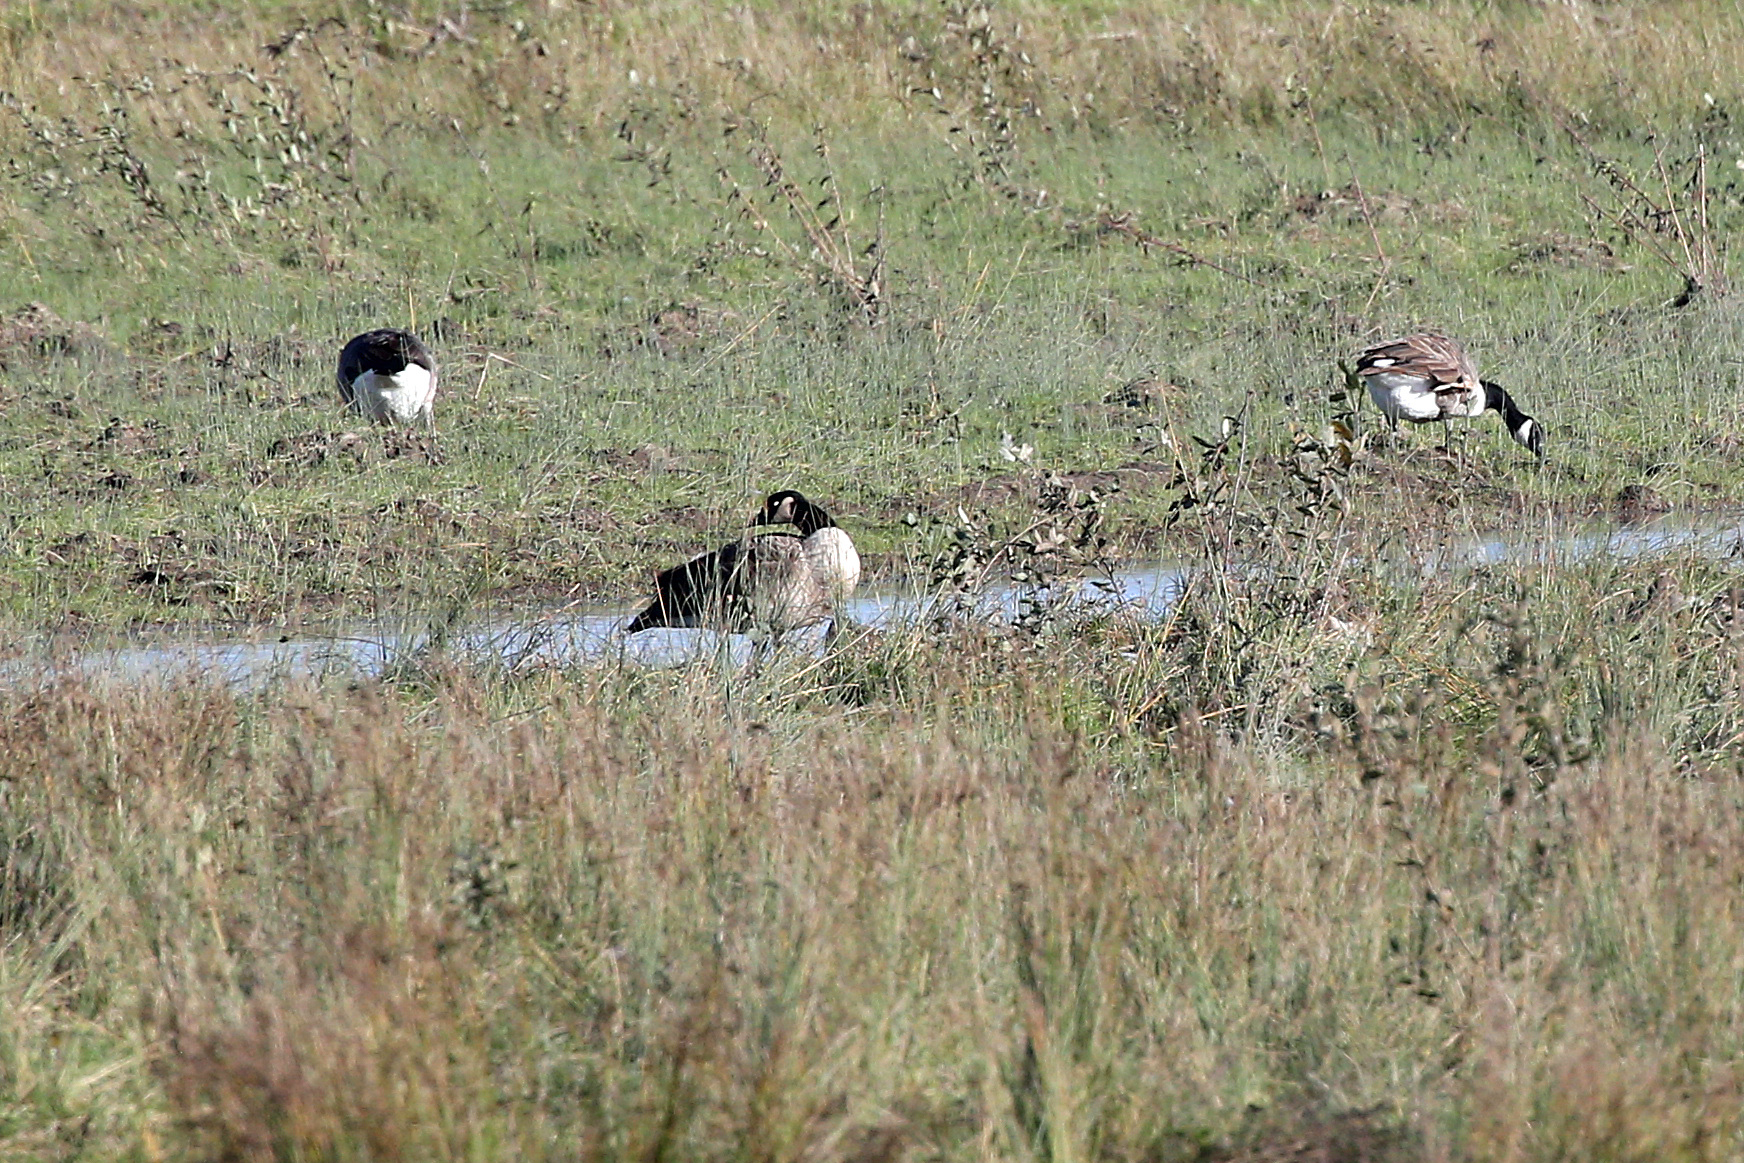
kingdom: Animalia
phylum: Chordata
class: Aves
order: Anseriformes
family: Anatidae
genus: Branta
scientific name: Branta canadensis
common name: Canada goose
